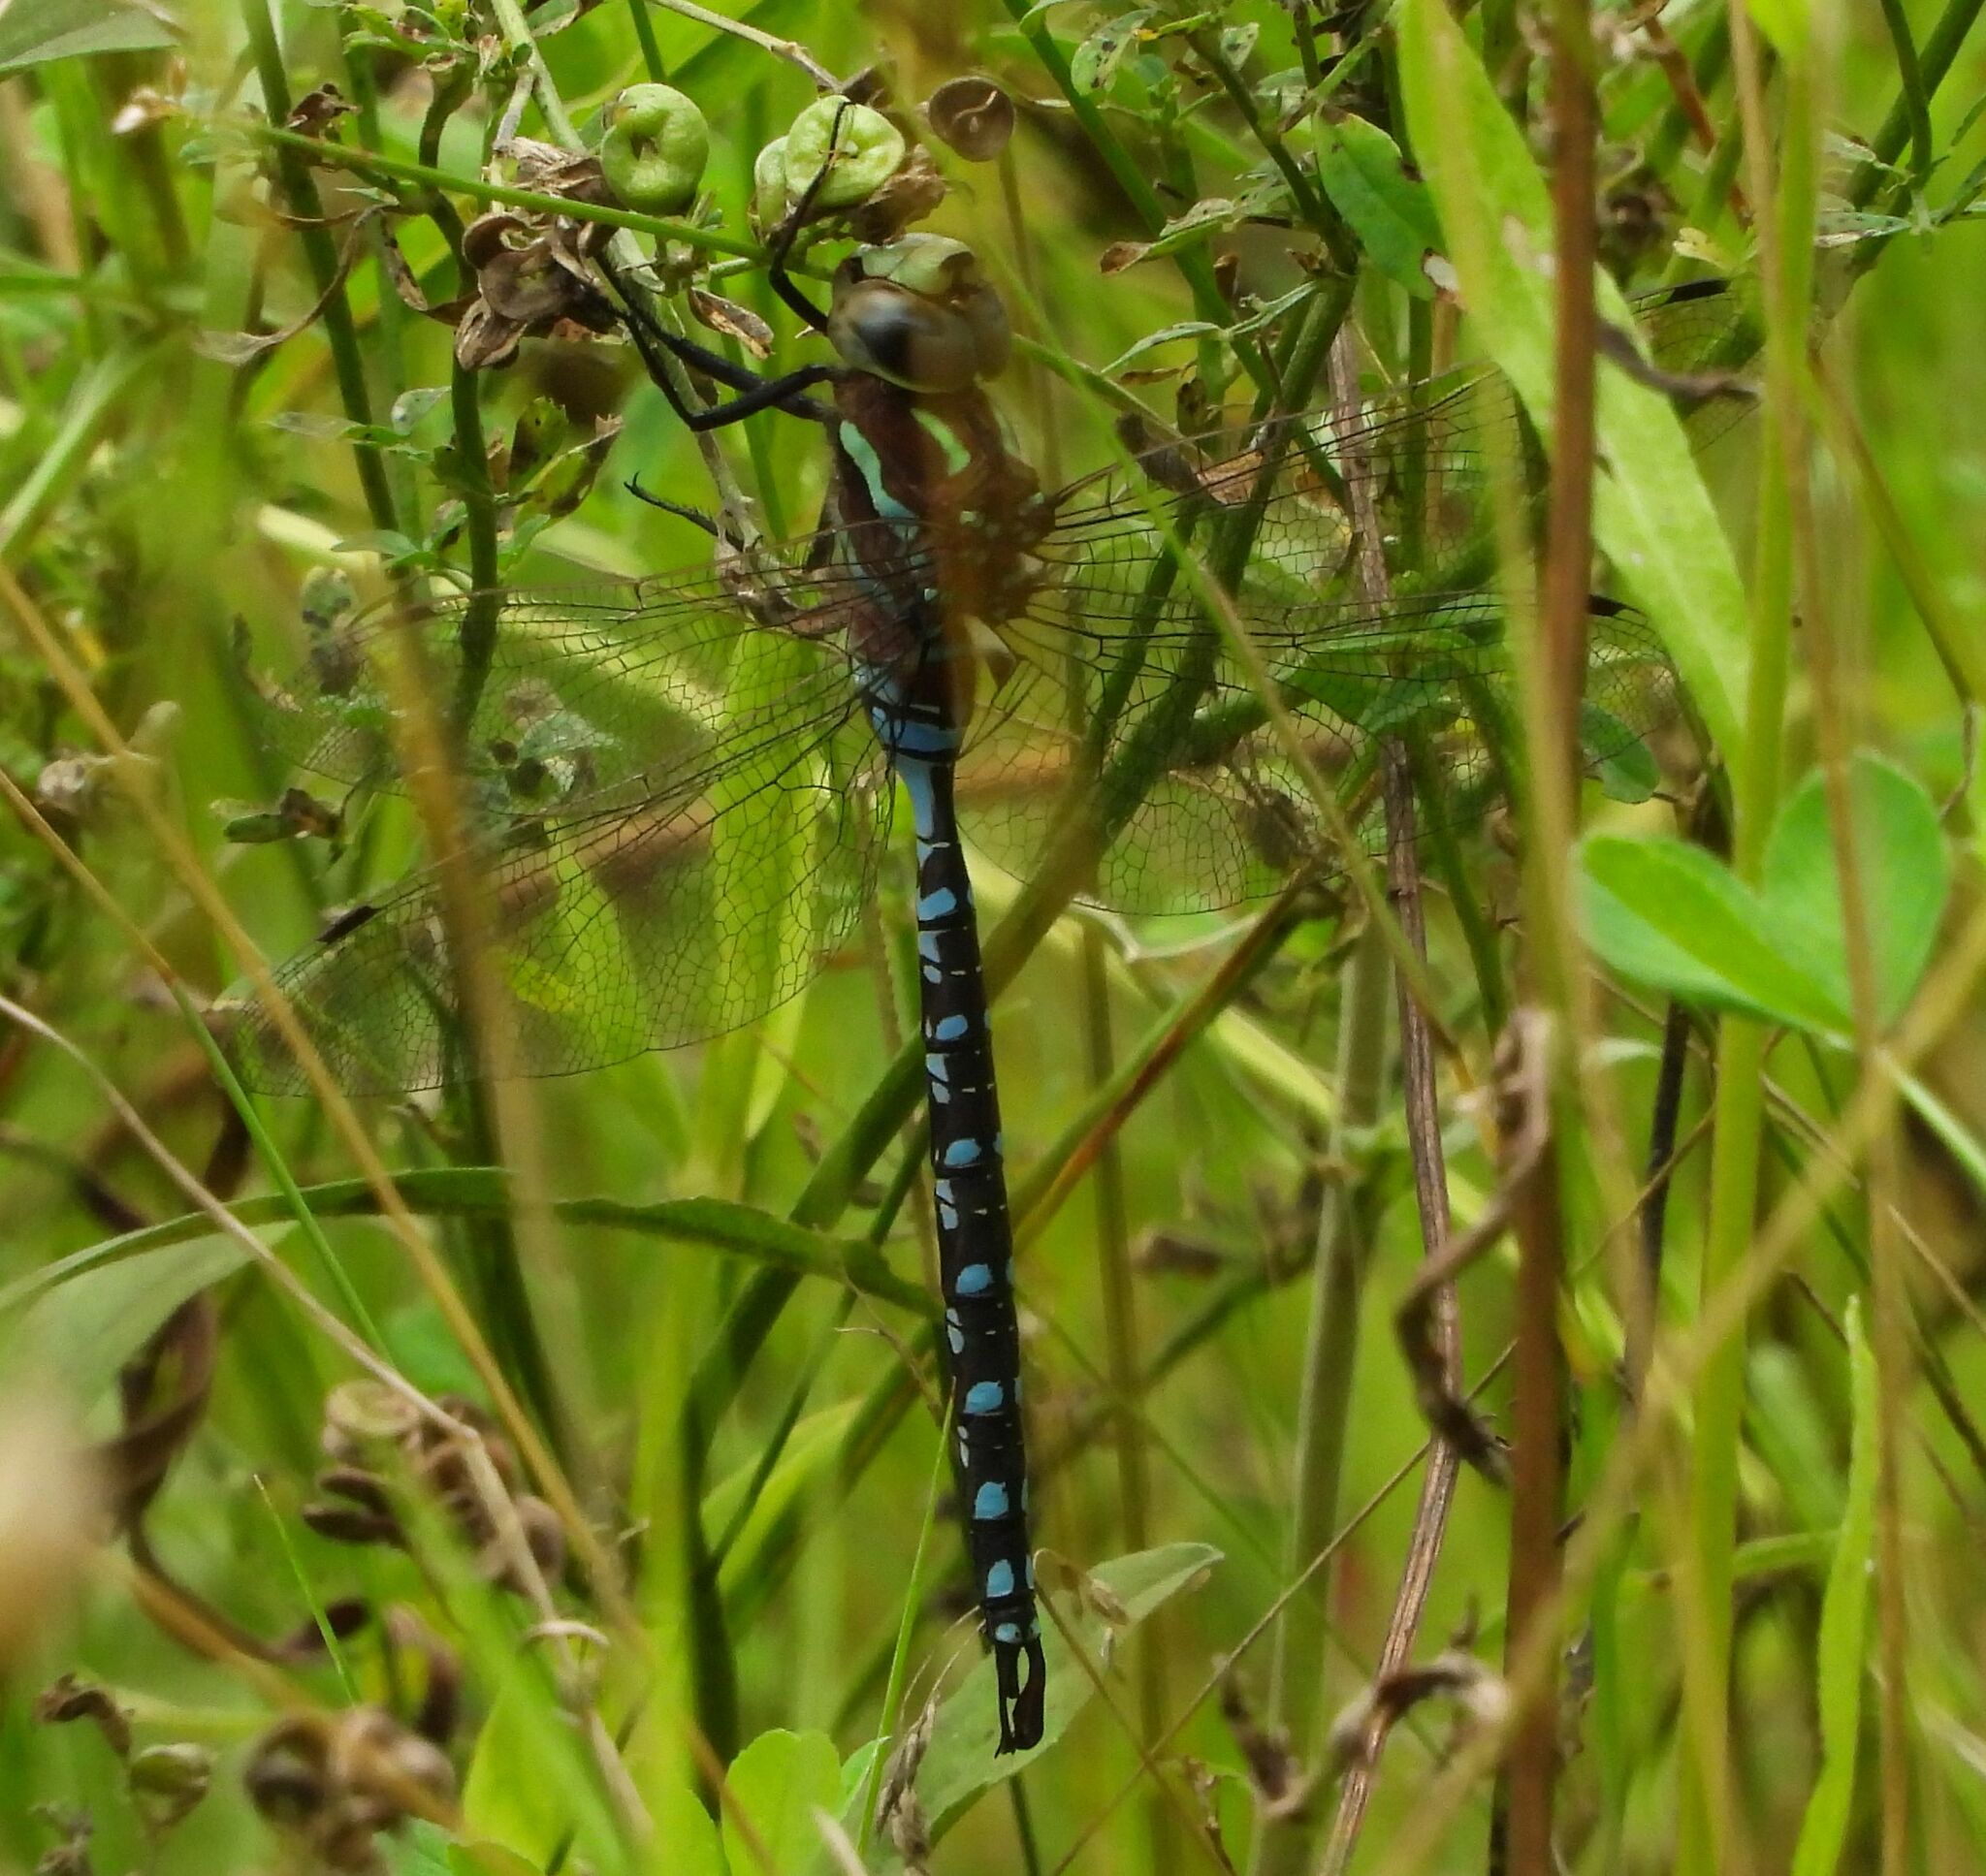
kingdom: Animalia
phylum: Arthropoda
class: Insecta
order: Odonata
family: Aeshnidae
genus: Aeshna
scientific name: Aeshna constricta
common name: Lance-tipped darner
